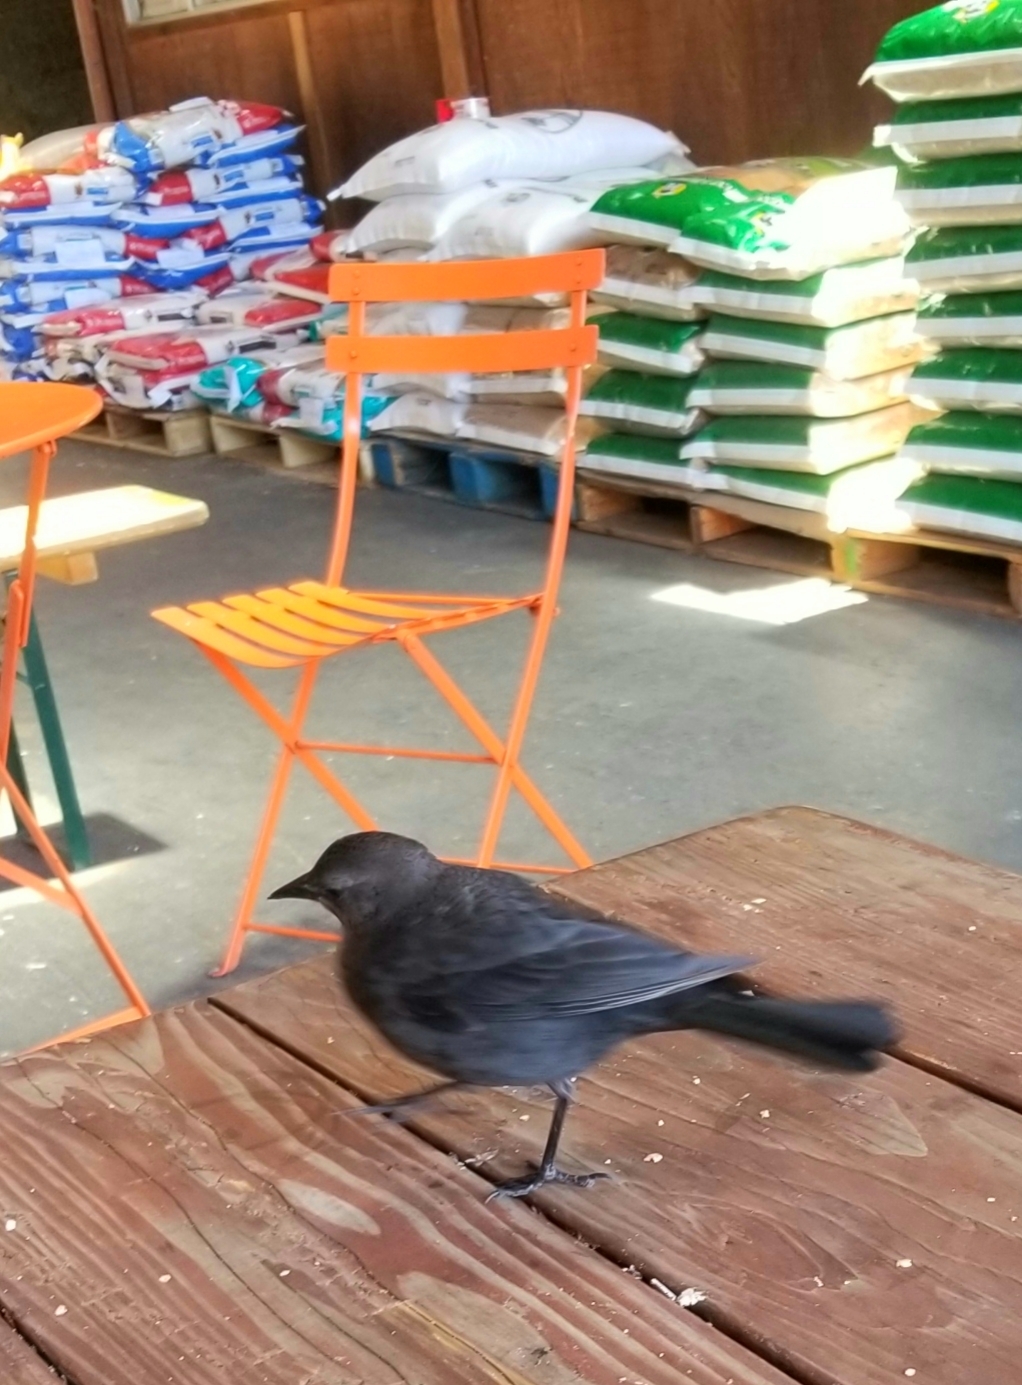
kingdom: Animalia
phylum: Chordata
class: Aves
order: Passeriformes
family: Icteridae
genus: Euphagus
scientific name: Euphagus cyanocephalus
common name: Brewer's blackbird
